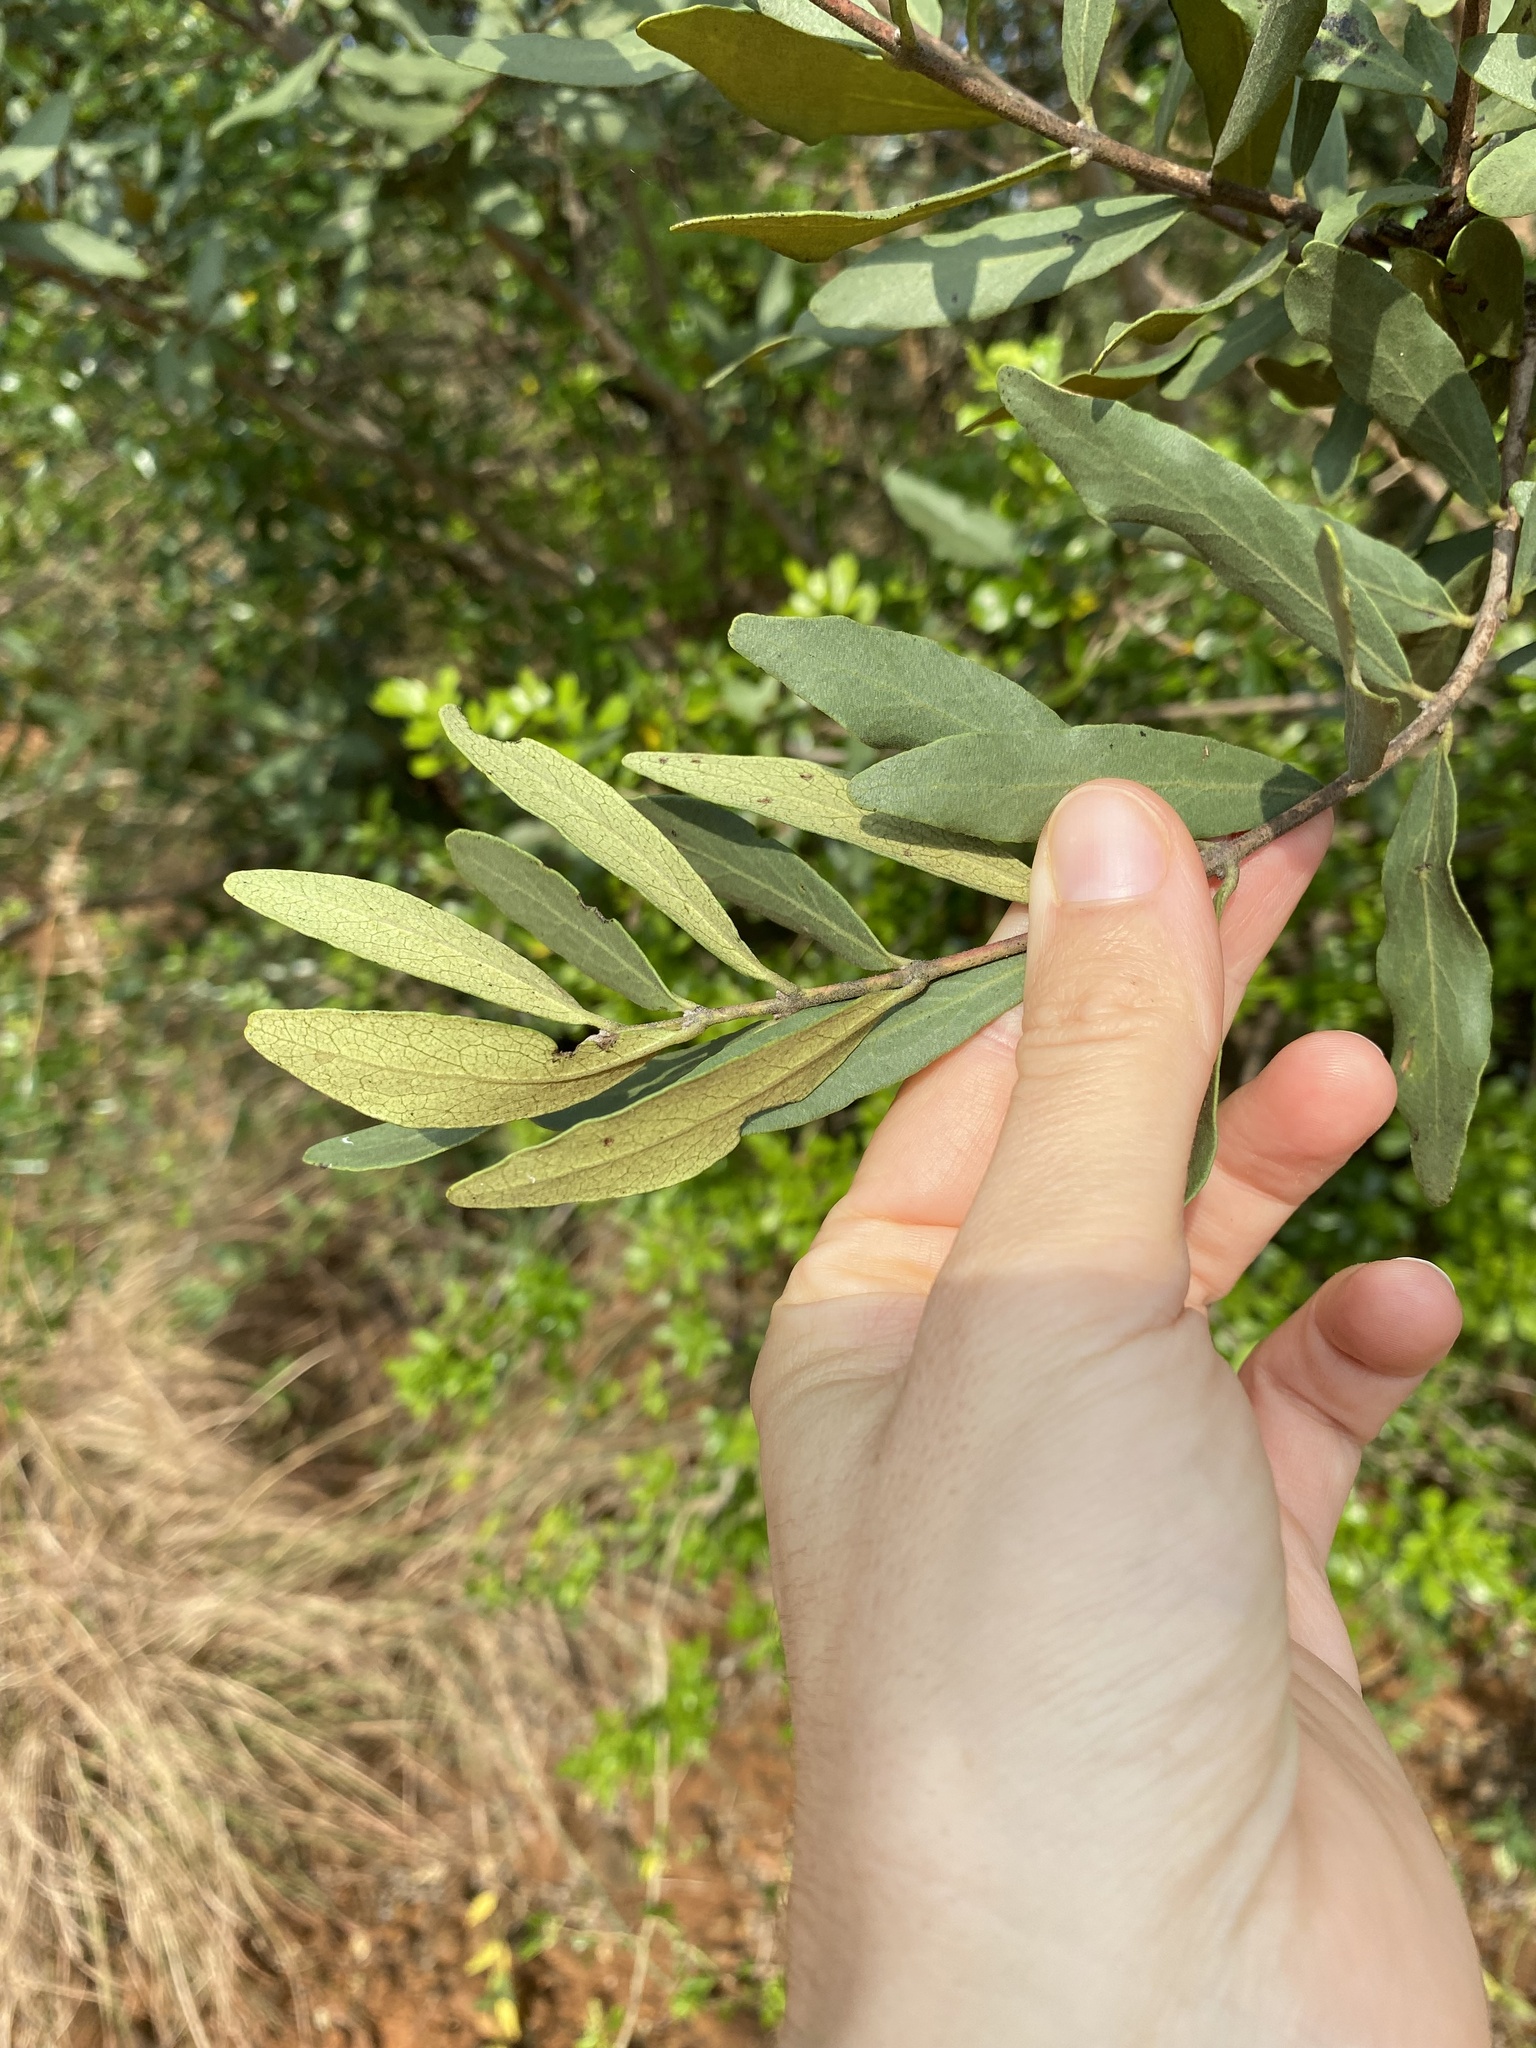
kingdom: Plantae
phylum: Tracheophyta
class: Magnoliopsida
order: Ericales
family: Ebenaceae
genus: Euclea
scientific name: Euclea crispa
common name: Blue guarri
